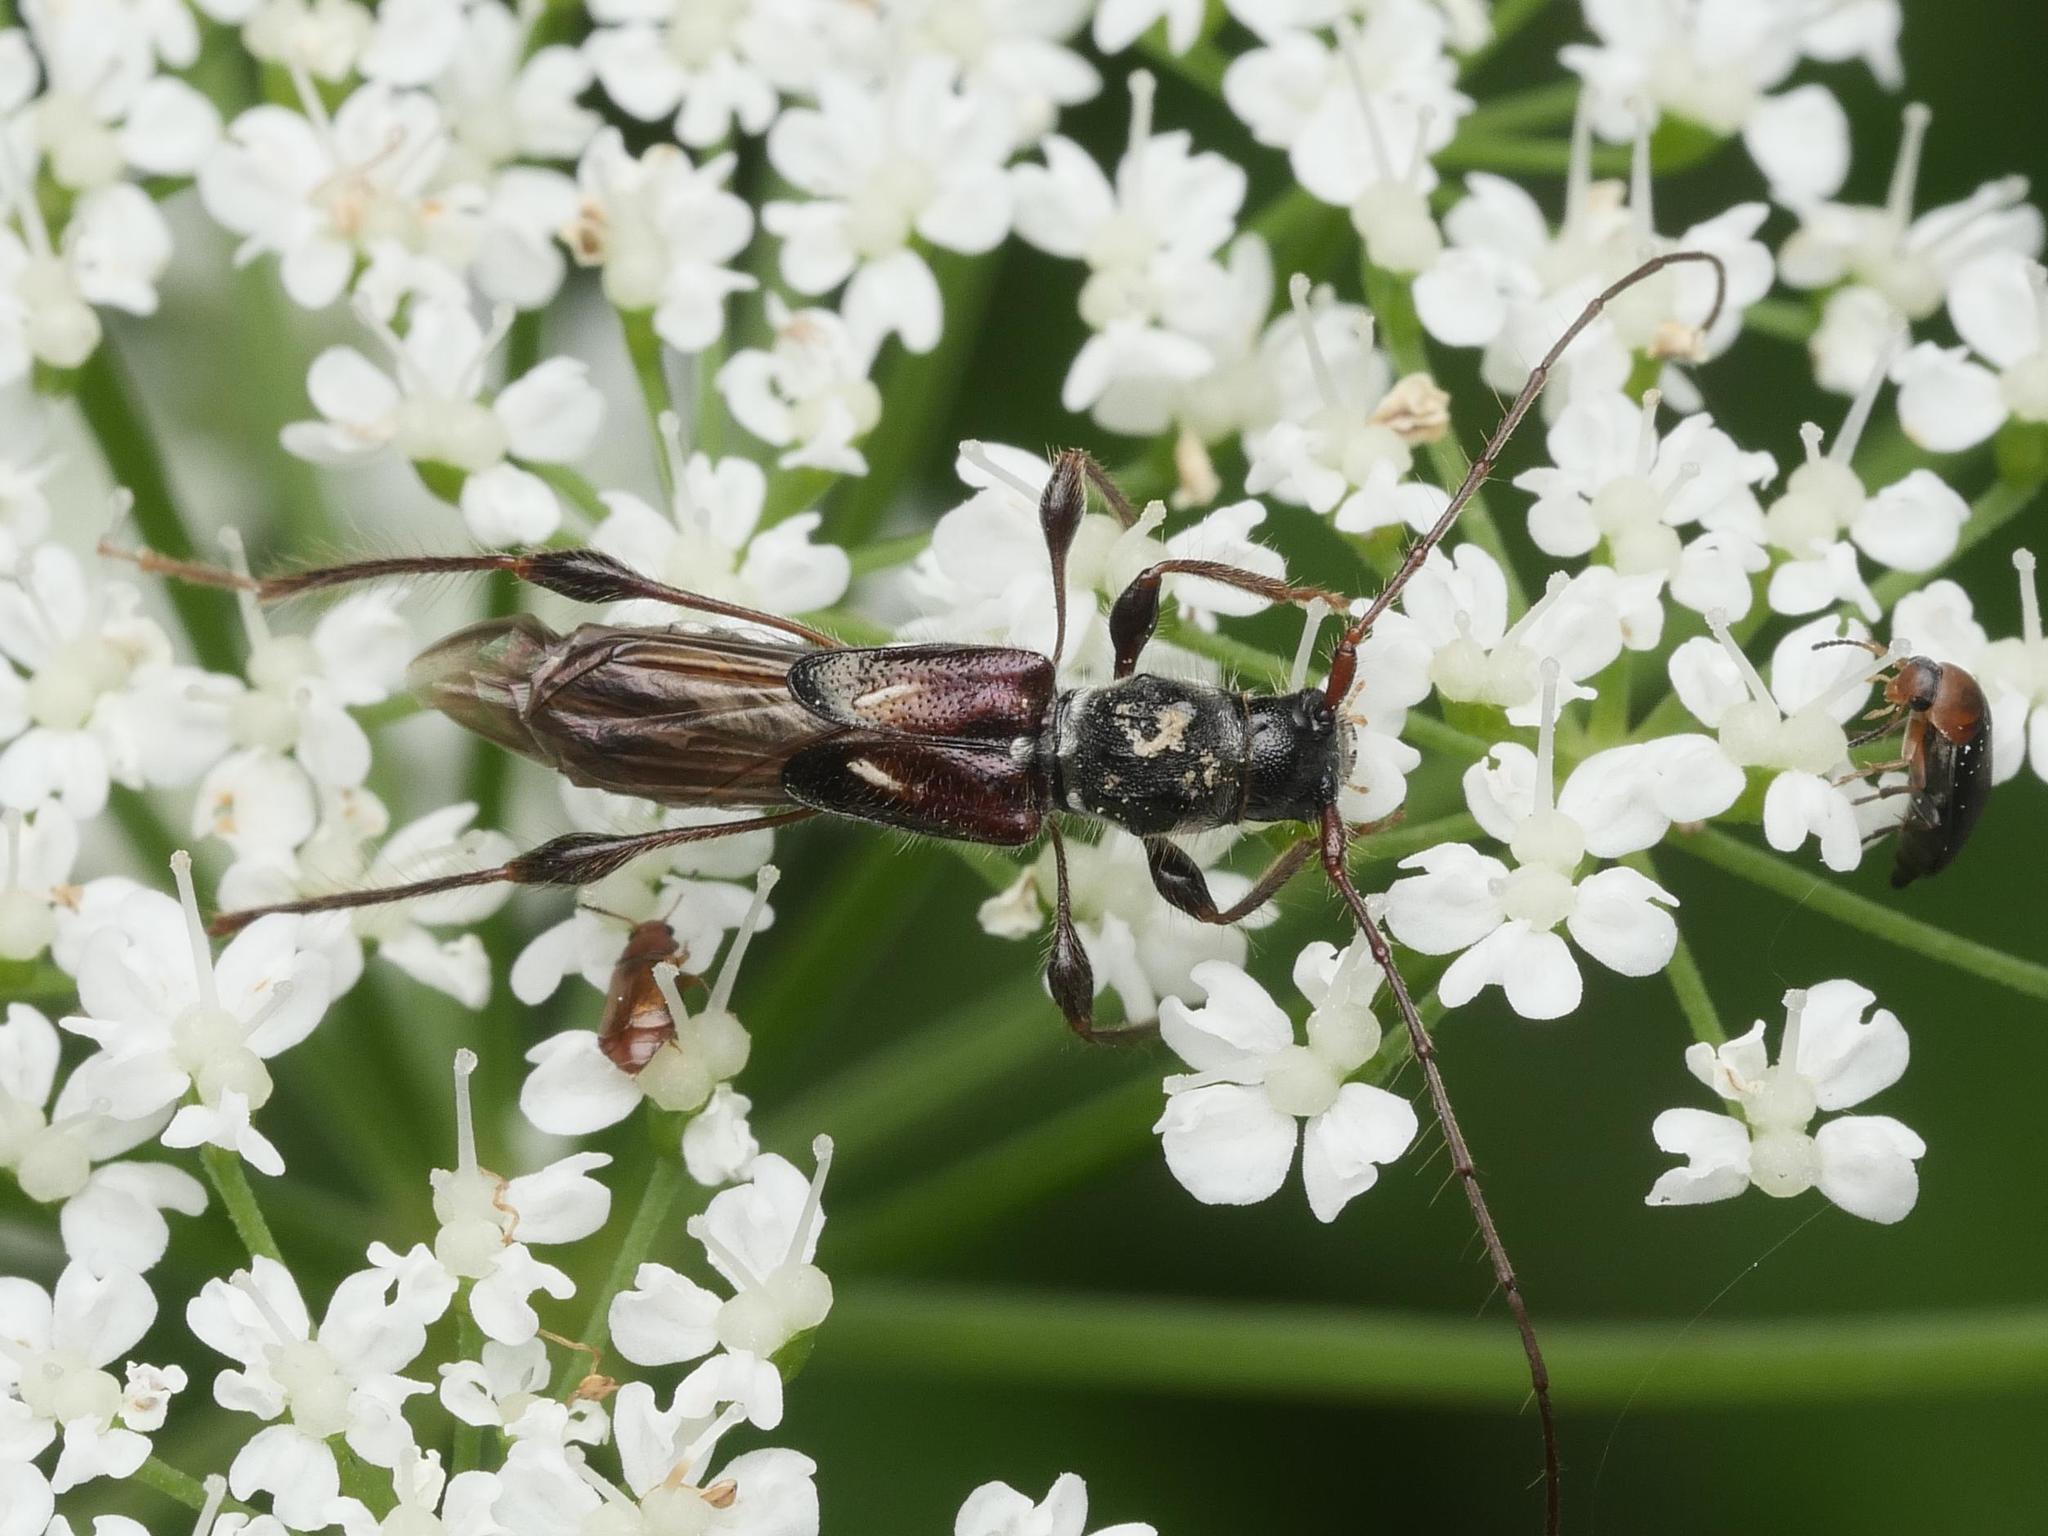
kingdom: Animalia
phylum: Arthropoda
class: Insecta
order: Coleoptera
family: Cerambycidae
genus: Molorchus
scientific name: Molorchus minor
